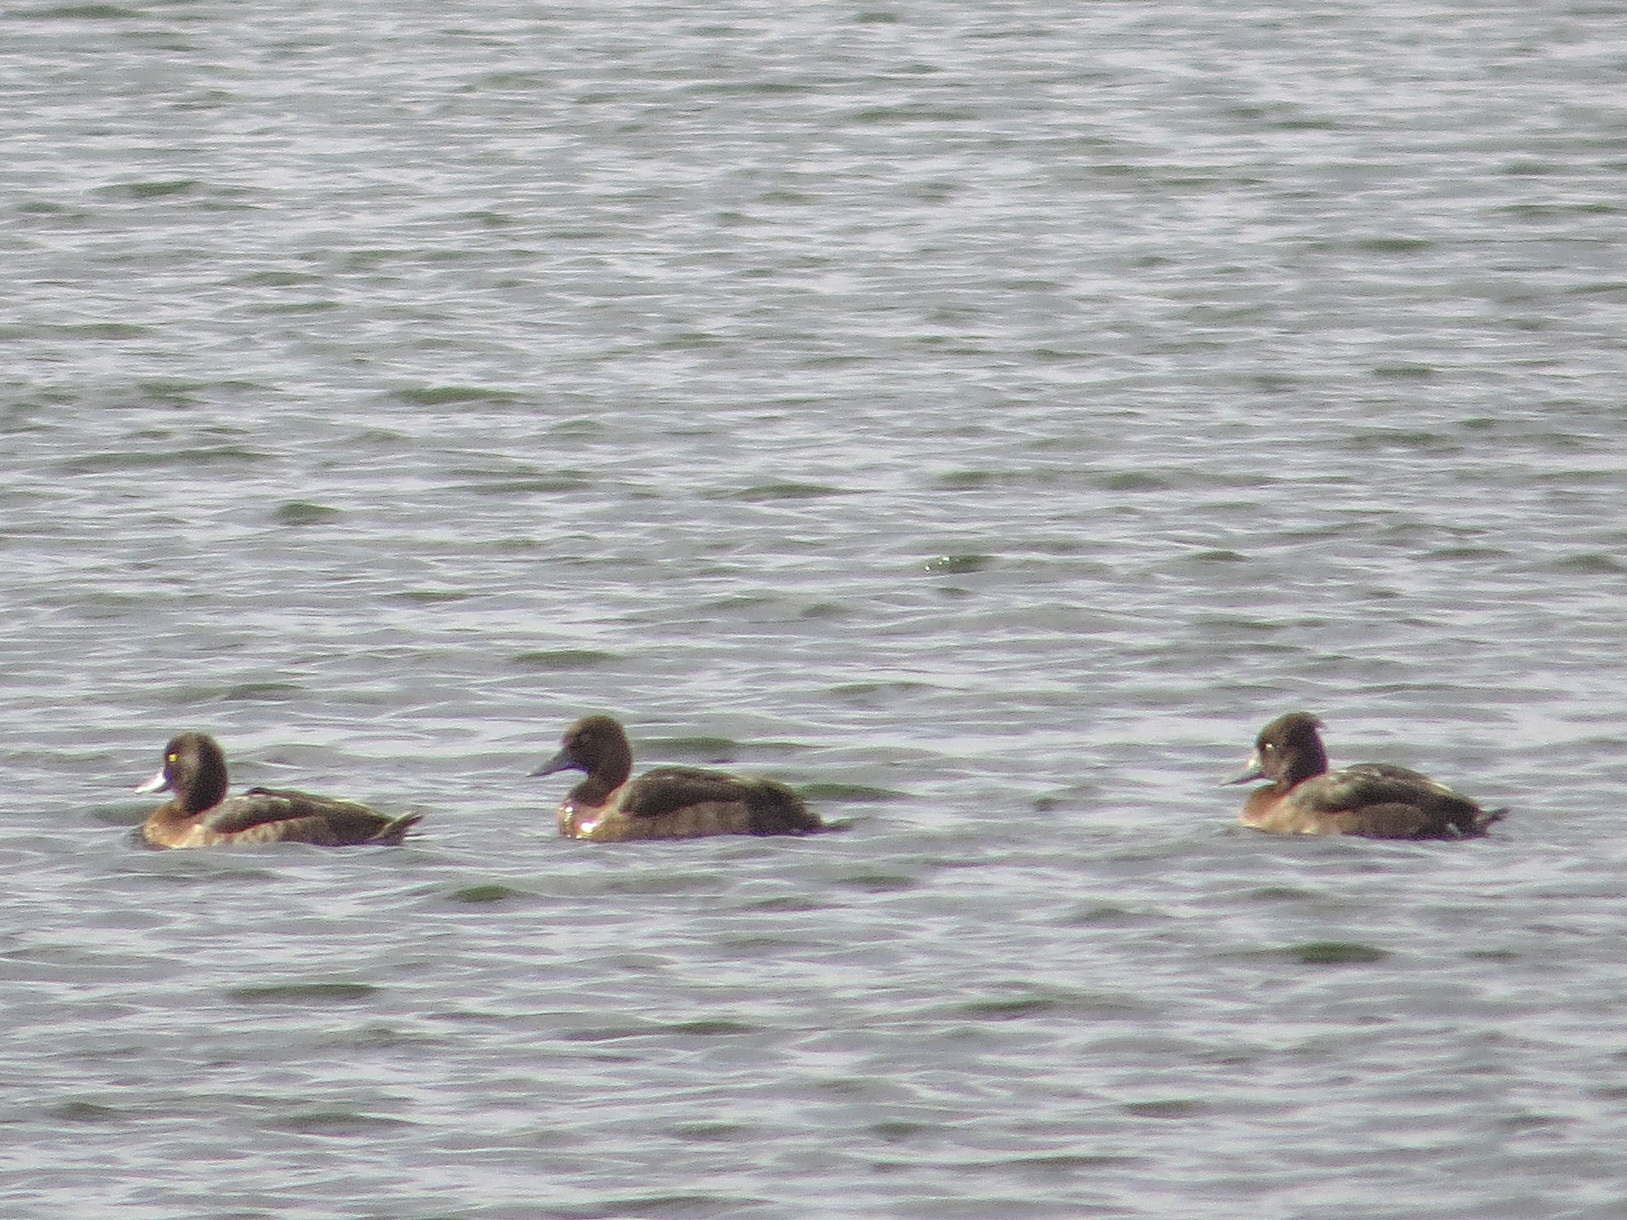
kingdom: Animalia
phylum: Chordata
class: Aves
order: Anseriformes
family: Anatidae
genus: Aythya
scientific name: Aythya fuligula
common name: Tufted duck
